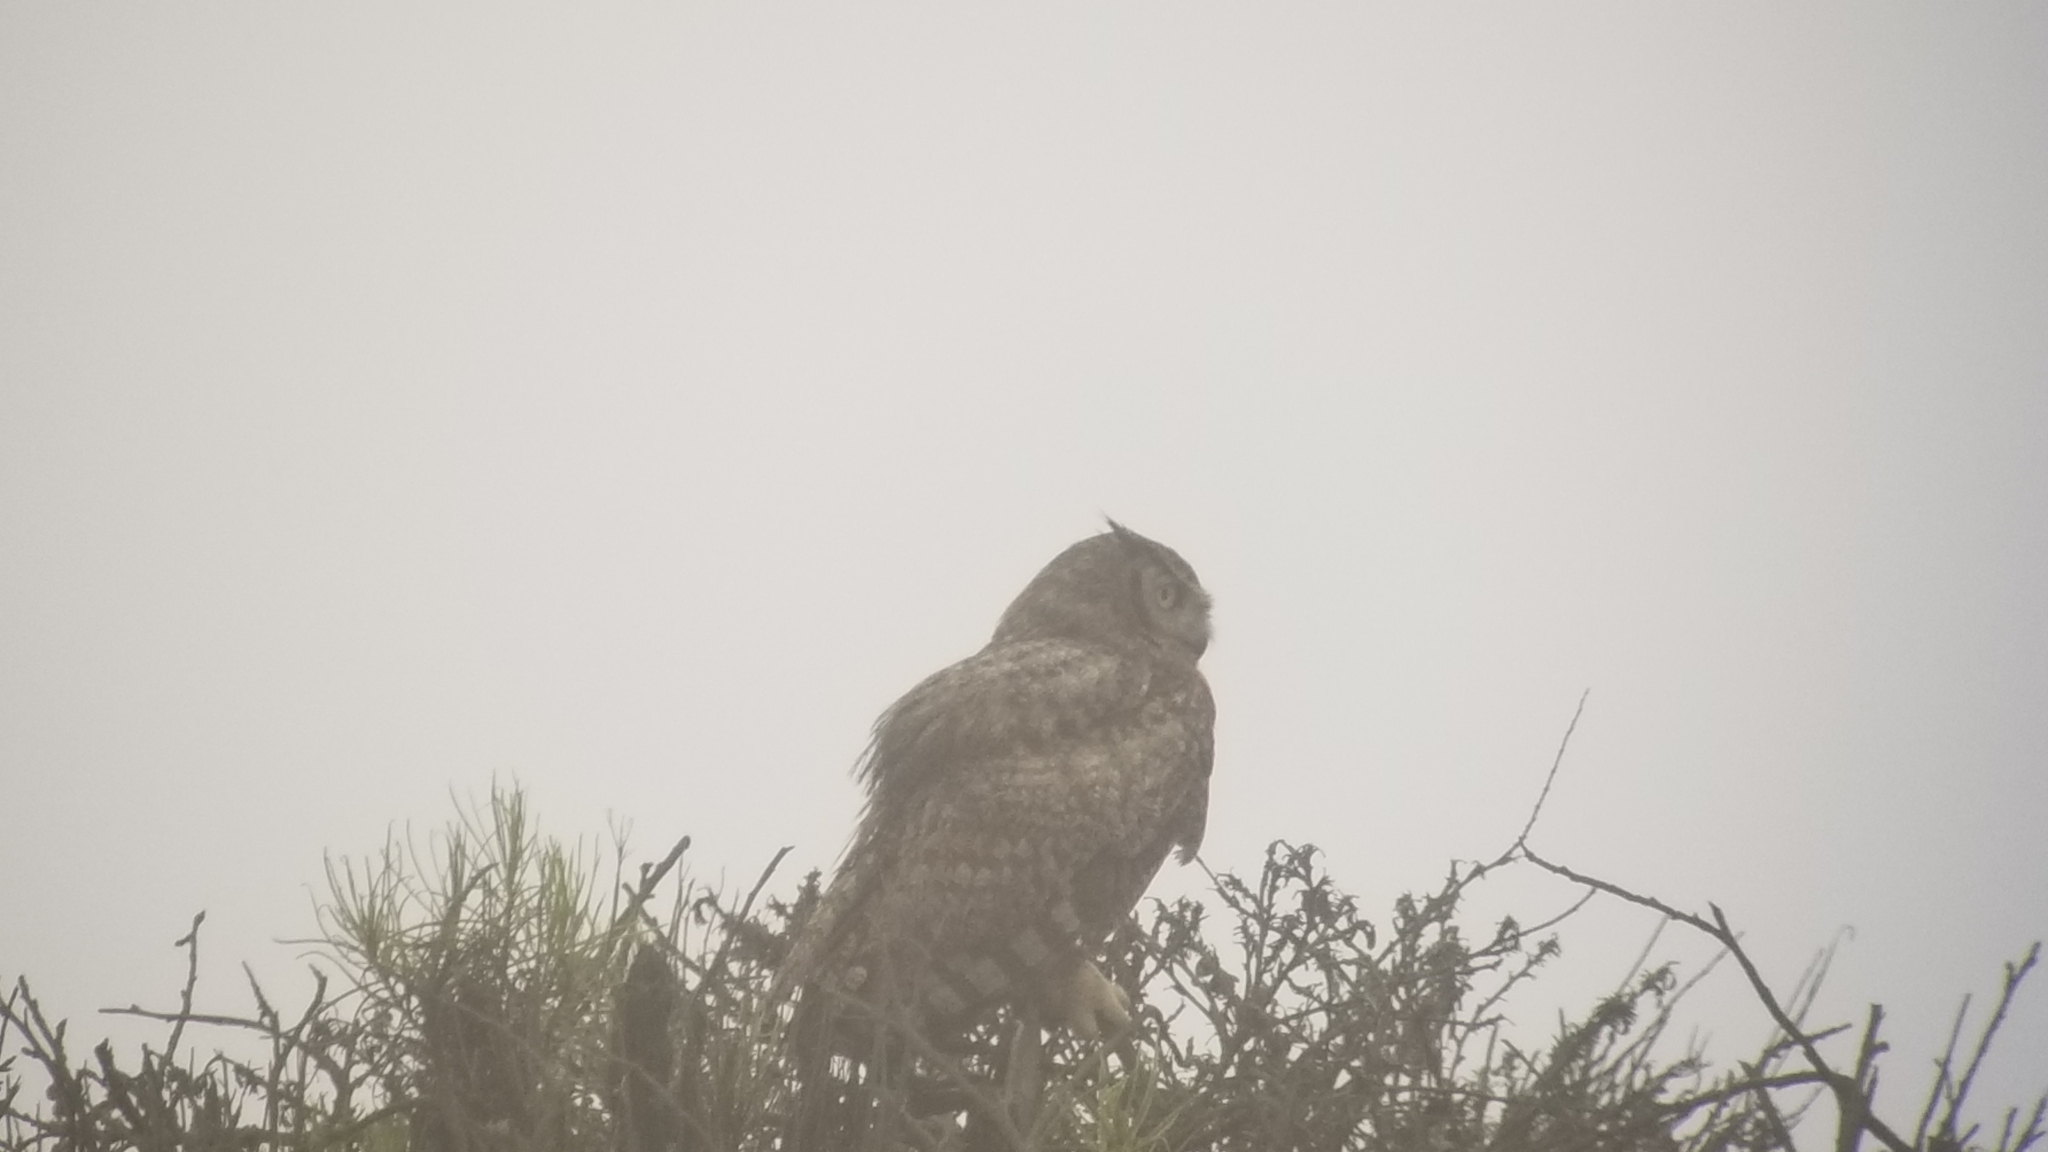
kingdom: Animalia
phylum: Chordata
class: Aves
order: Strigiformes
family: Strigidae
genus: Bubo
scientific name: Bubo virginianus
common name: Great horned owl
